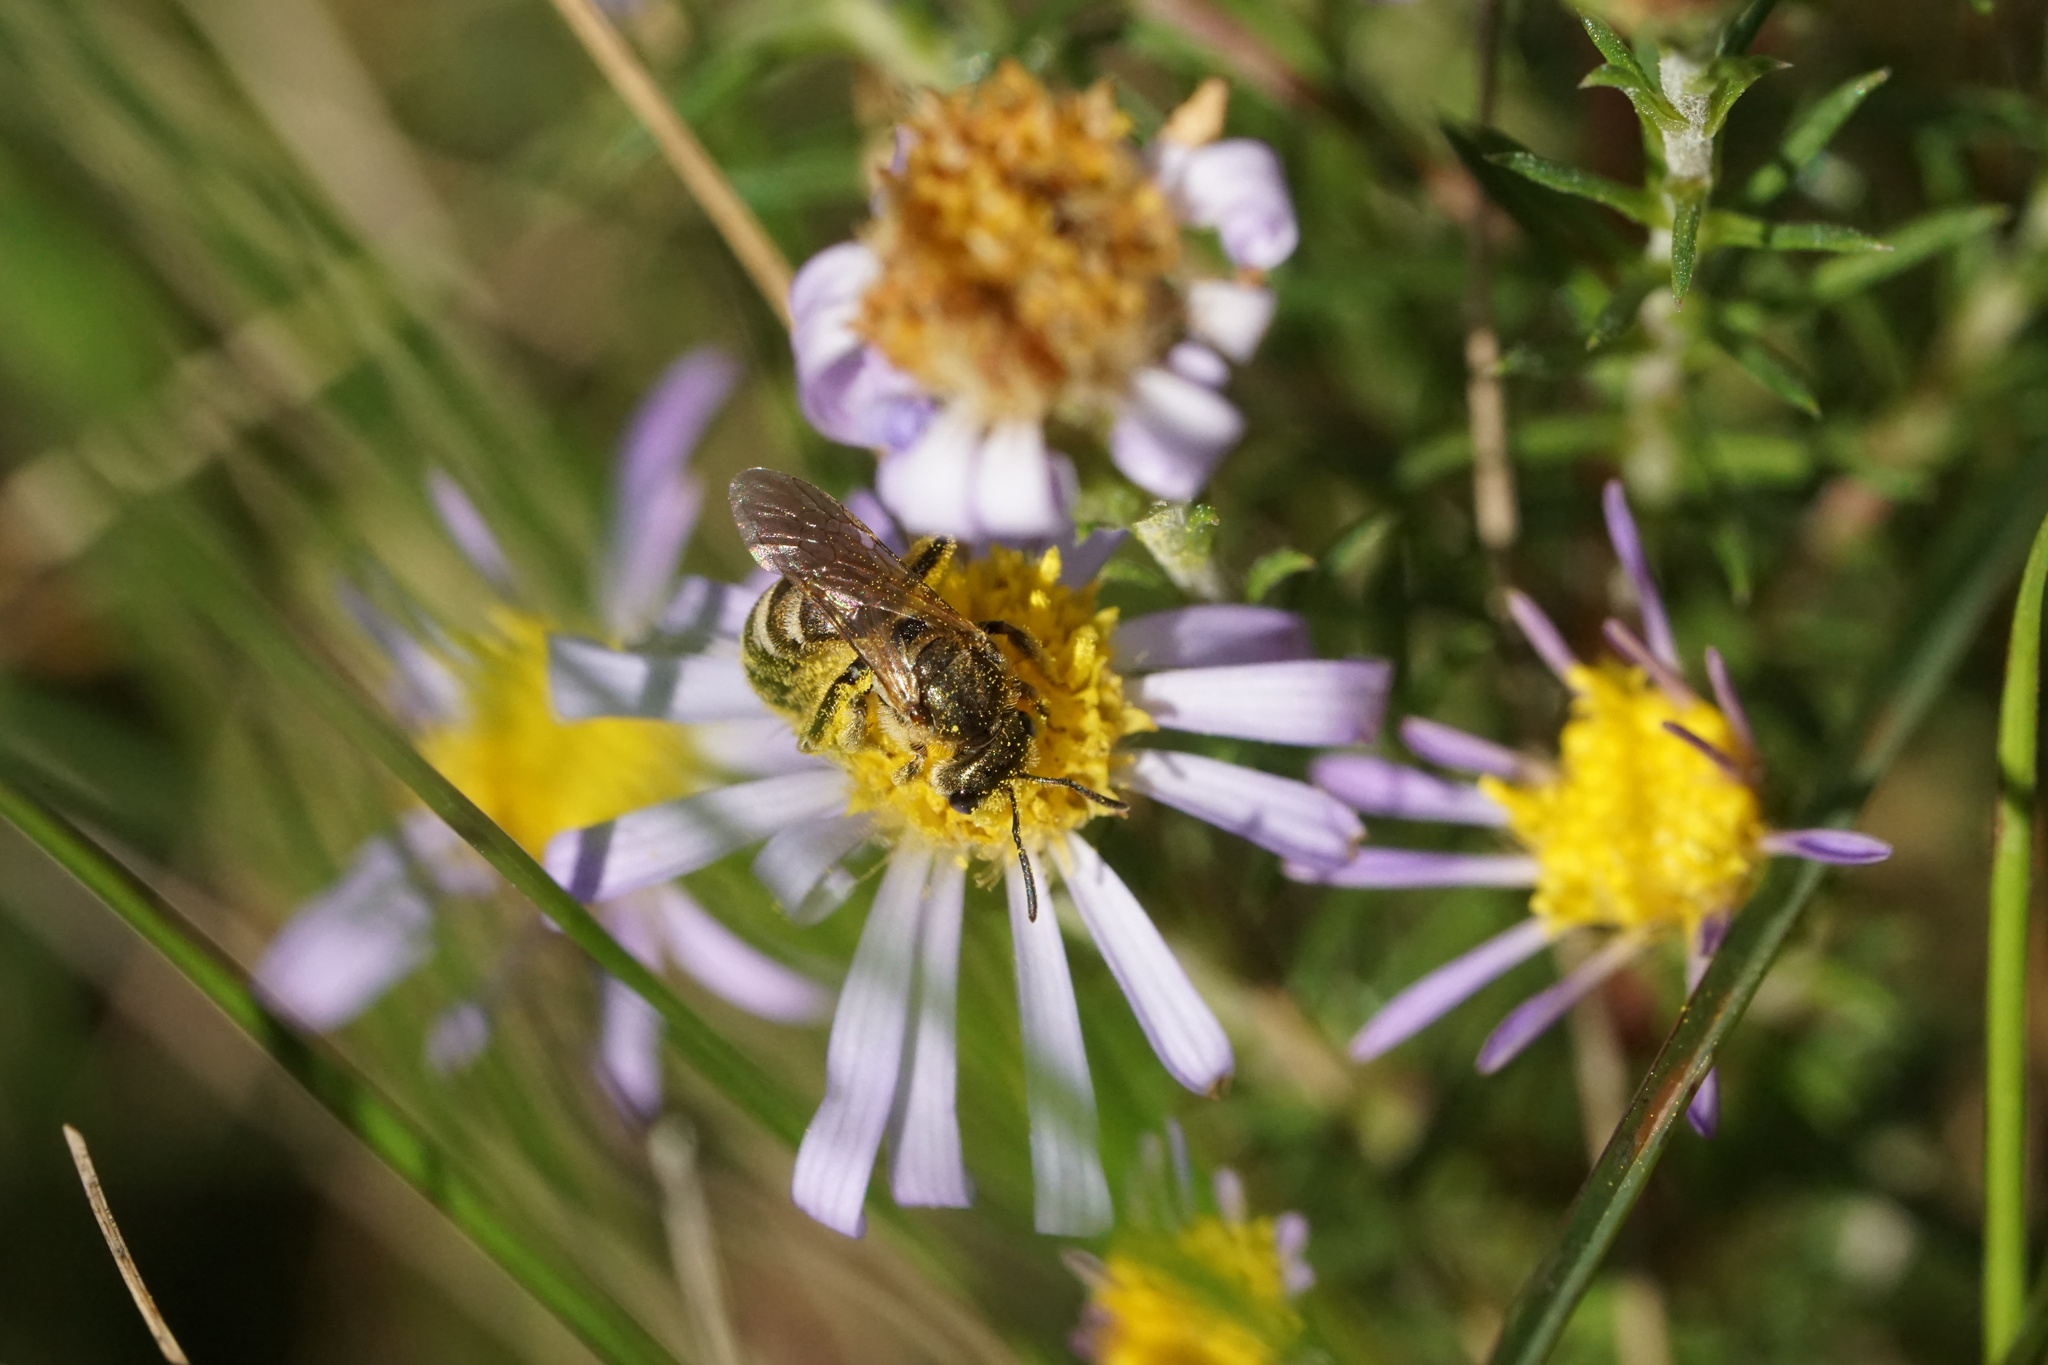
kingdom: Animalia
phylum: Arthropoda
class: Insecta
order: Hymenoptera
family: Halictidae
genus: Halictus
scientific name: Halictus confusus
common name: Southern bronze furrow bee
